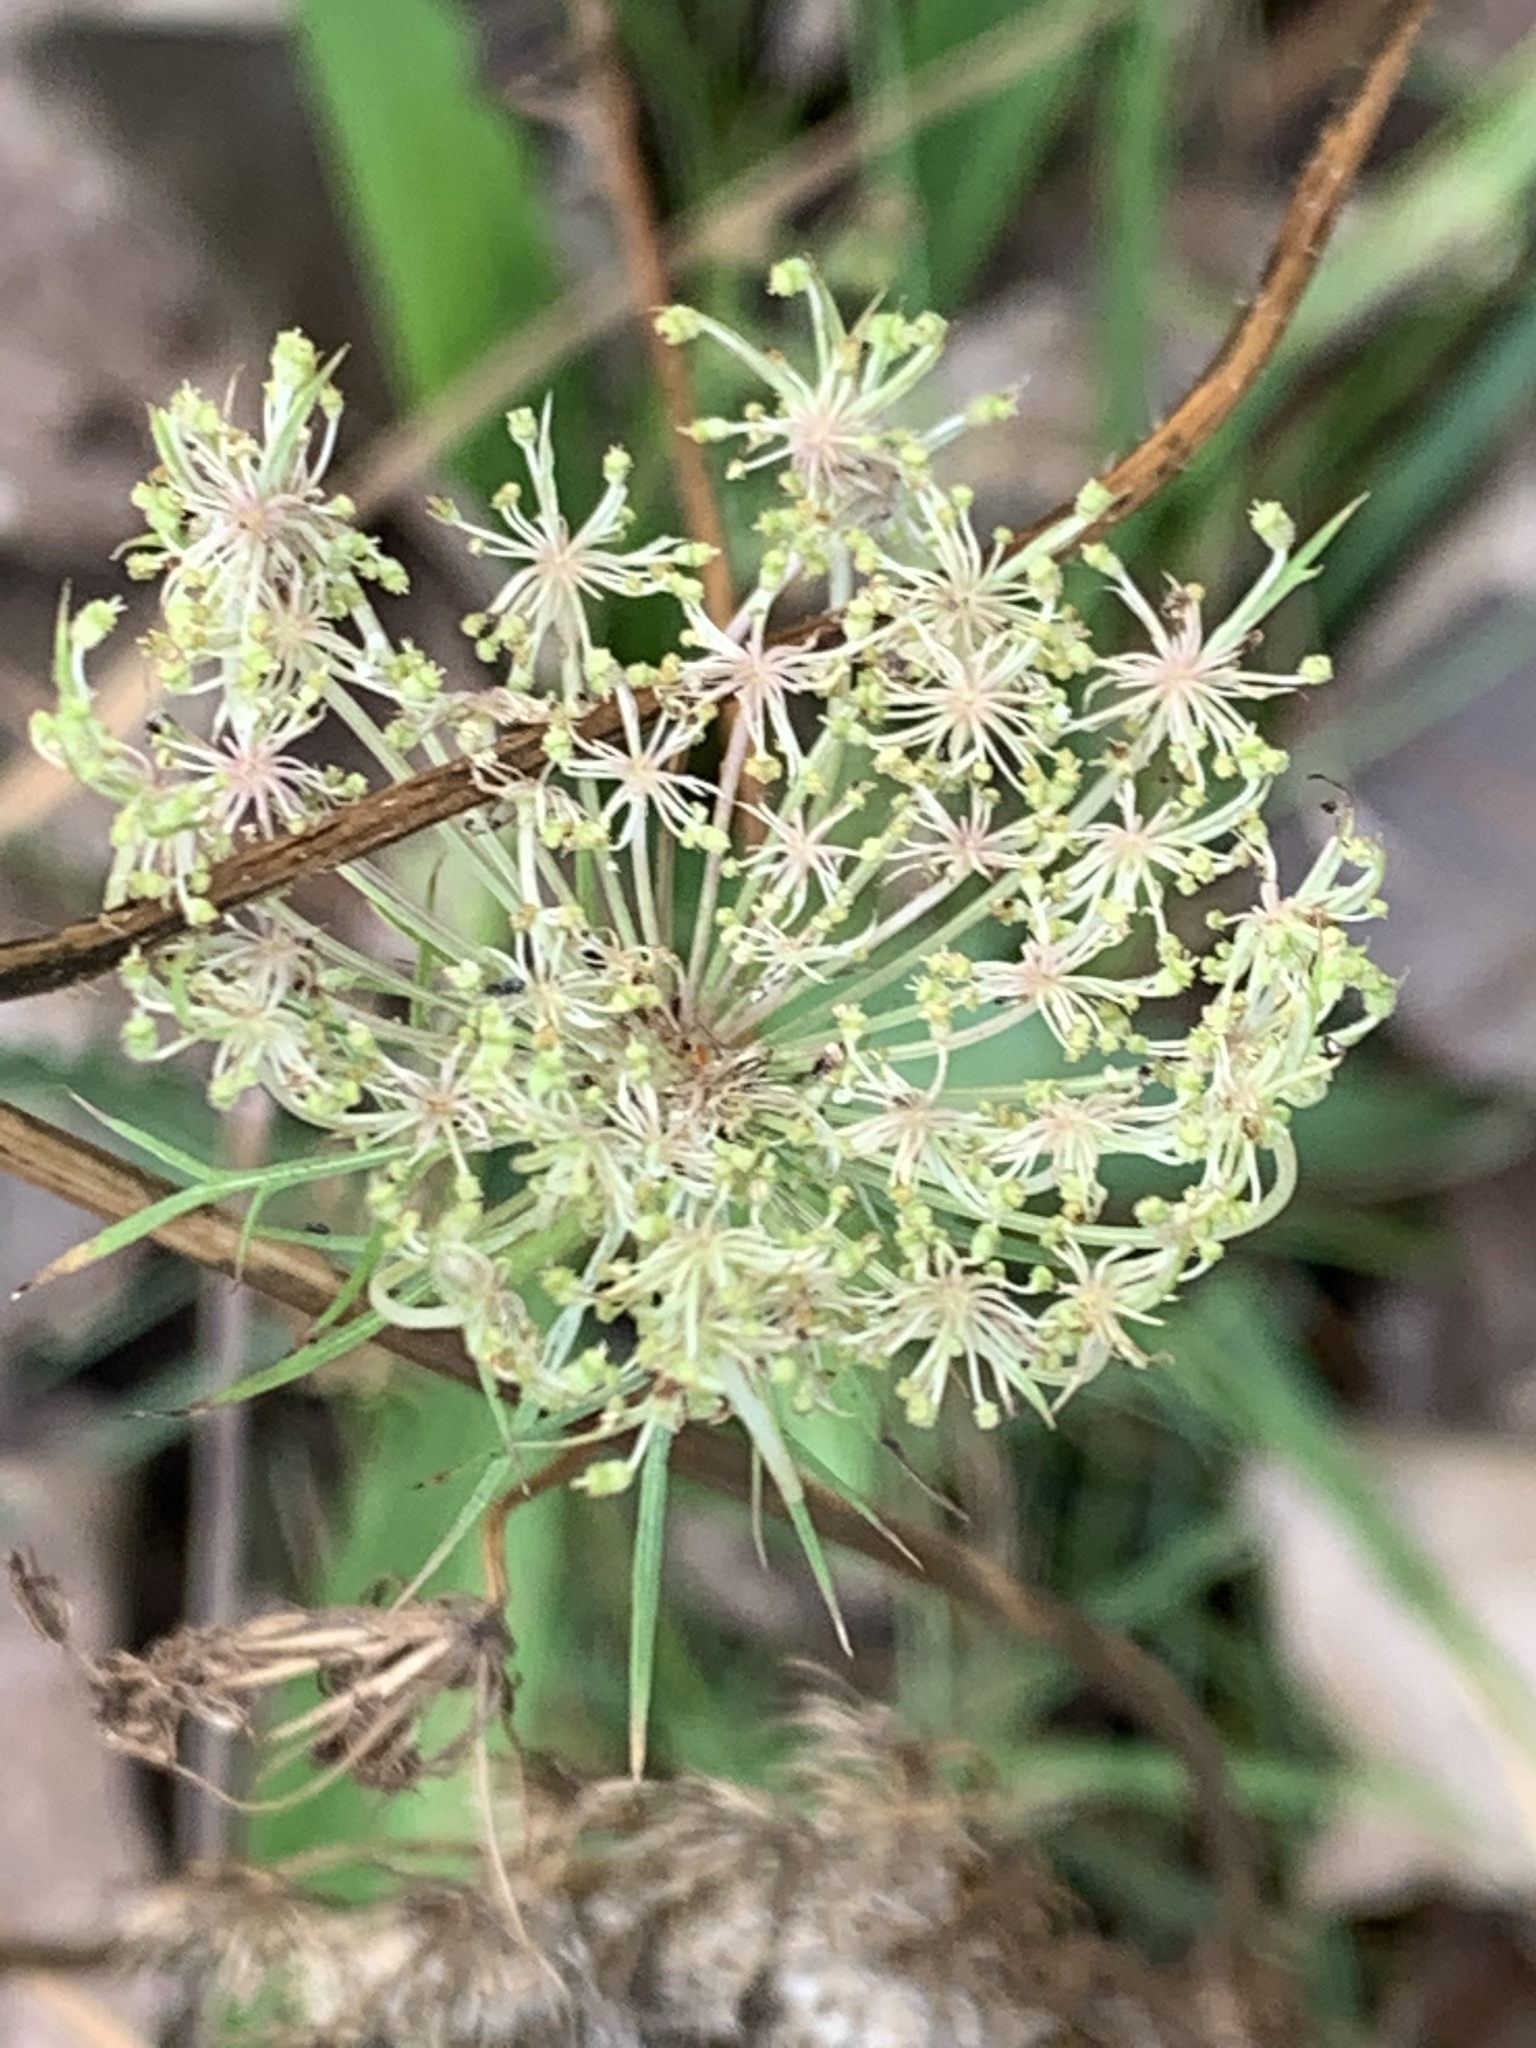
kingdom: Plantae
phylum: Tracheophyta
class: Magnoliopsida
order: Apiales
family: Apiaceae
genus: Daucus
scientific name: Daucus carota
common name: Wild carrot
